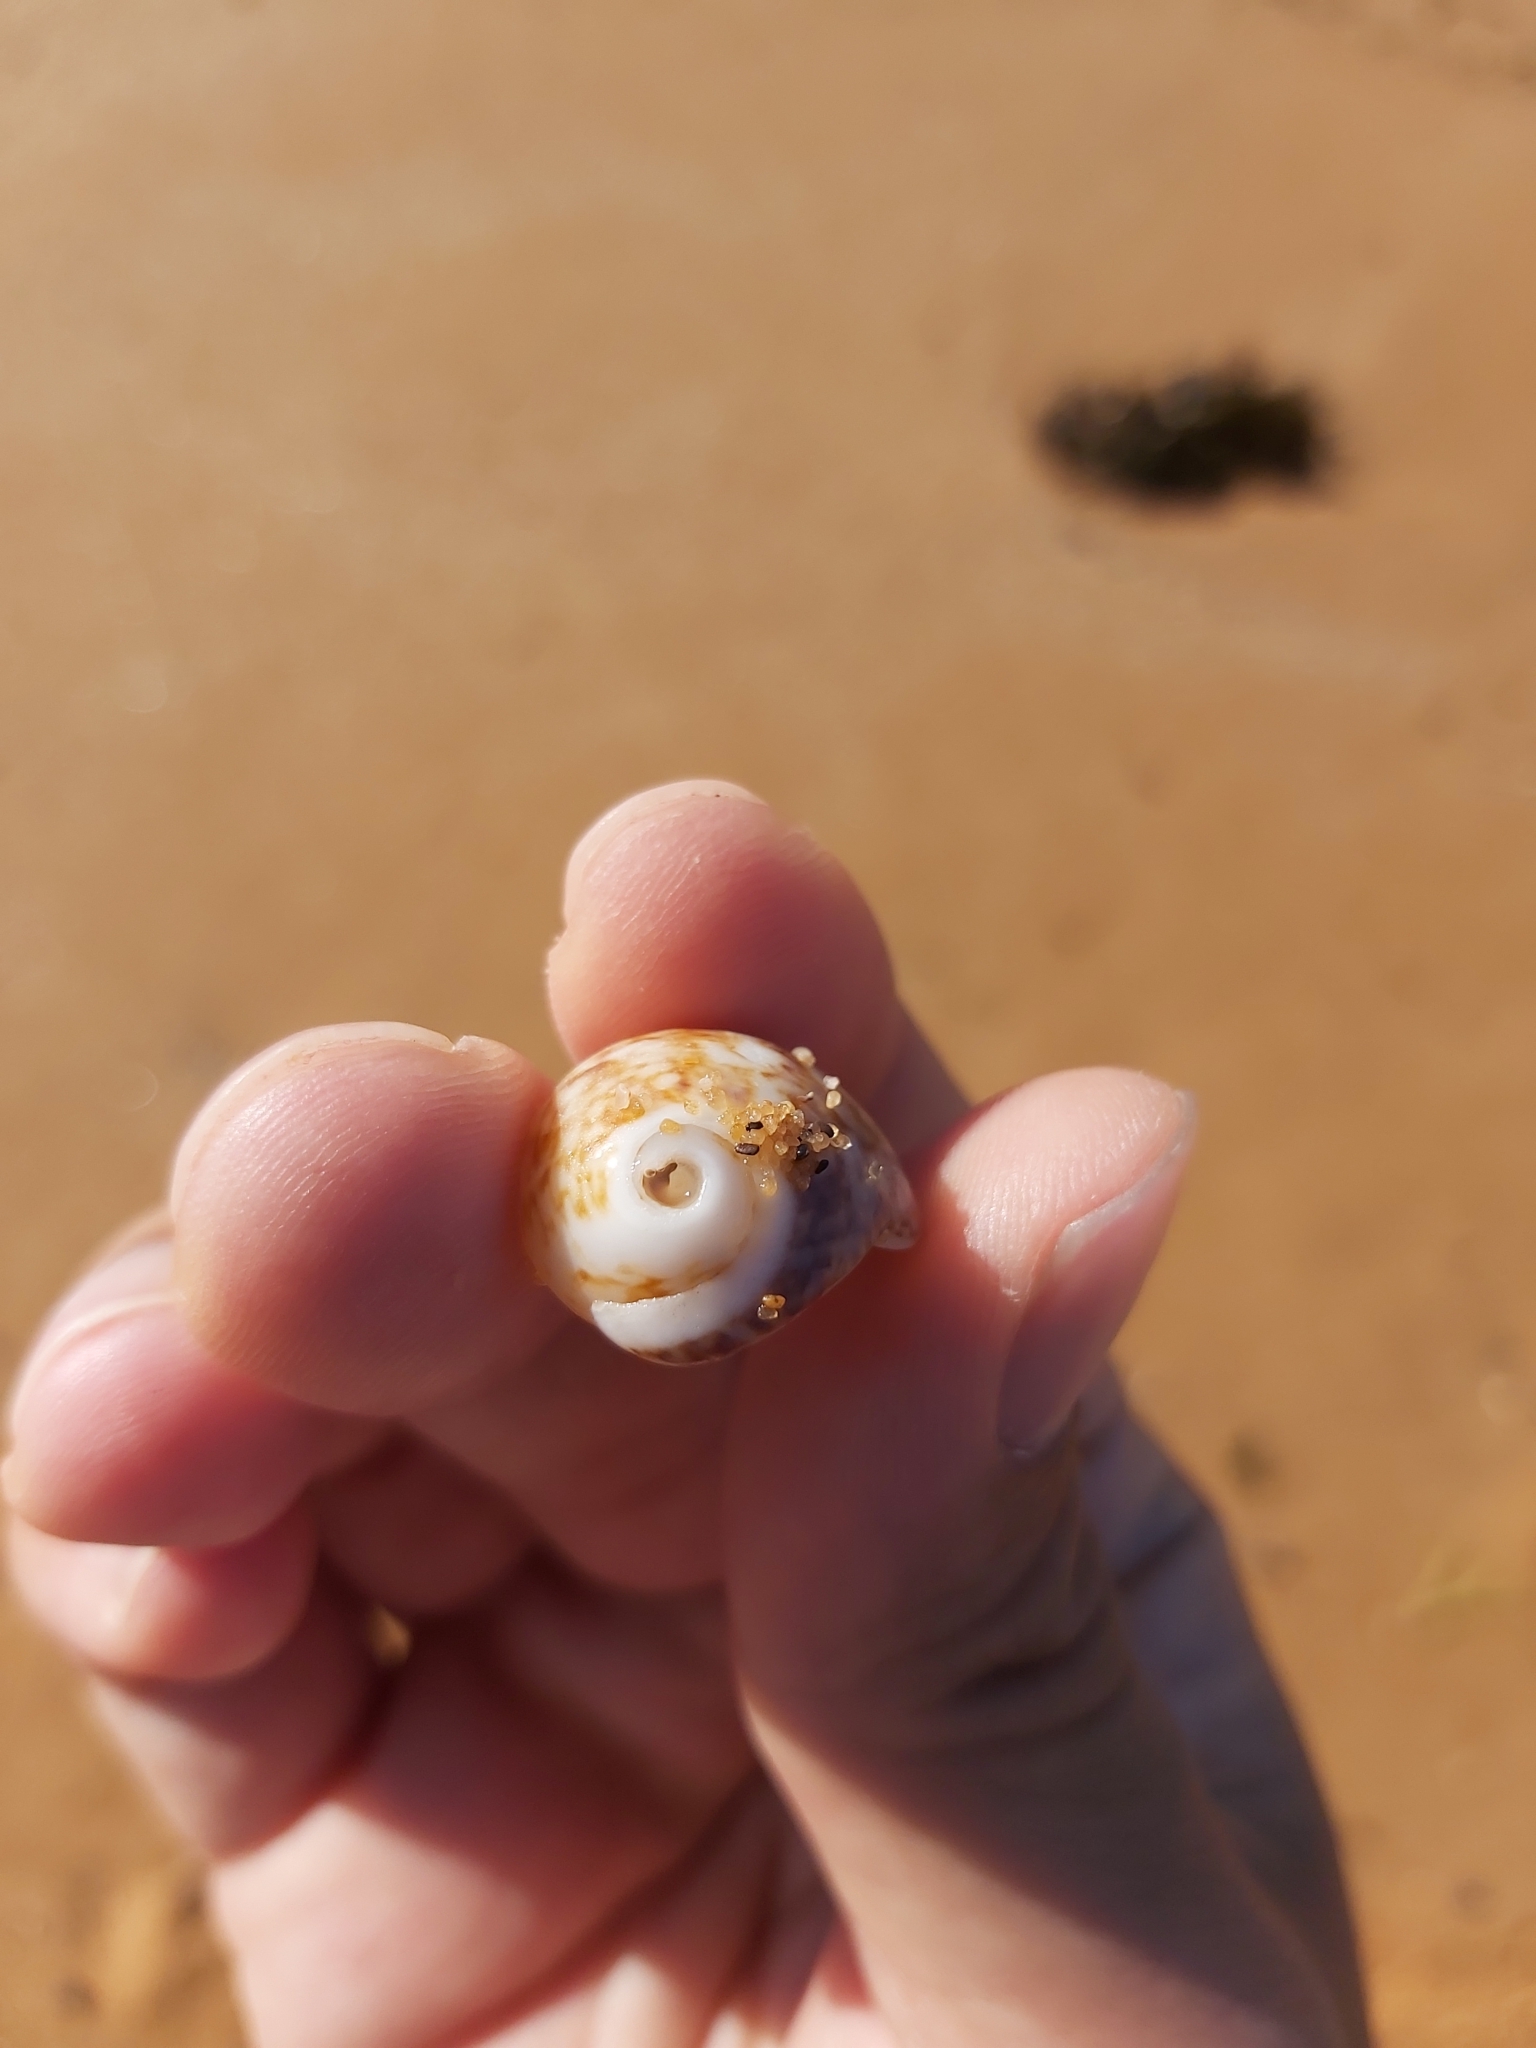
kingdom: Animalia
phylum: Mollusca
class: Gastropoda
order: Littorinimorpha
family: Naticidae
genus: Mammilla
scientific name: Mammilla simiae
